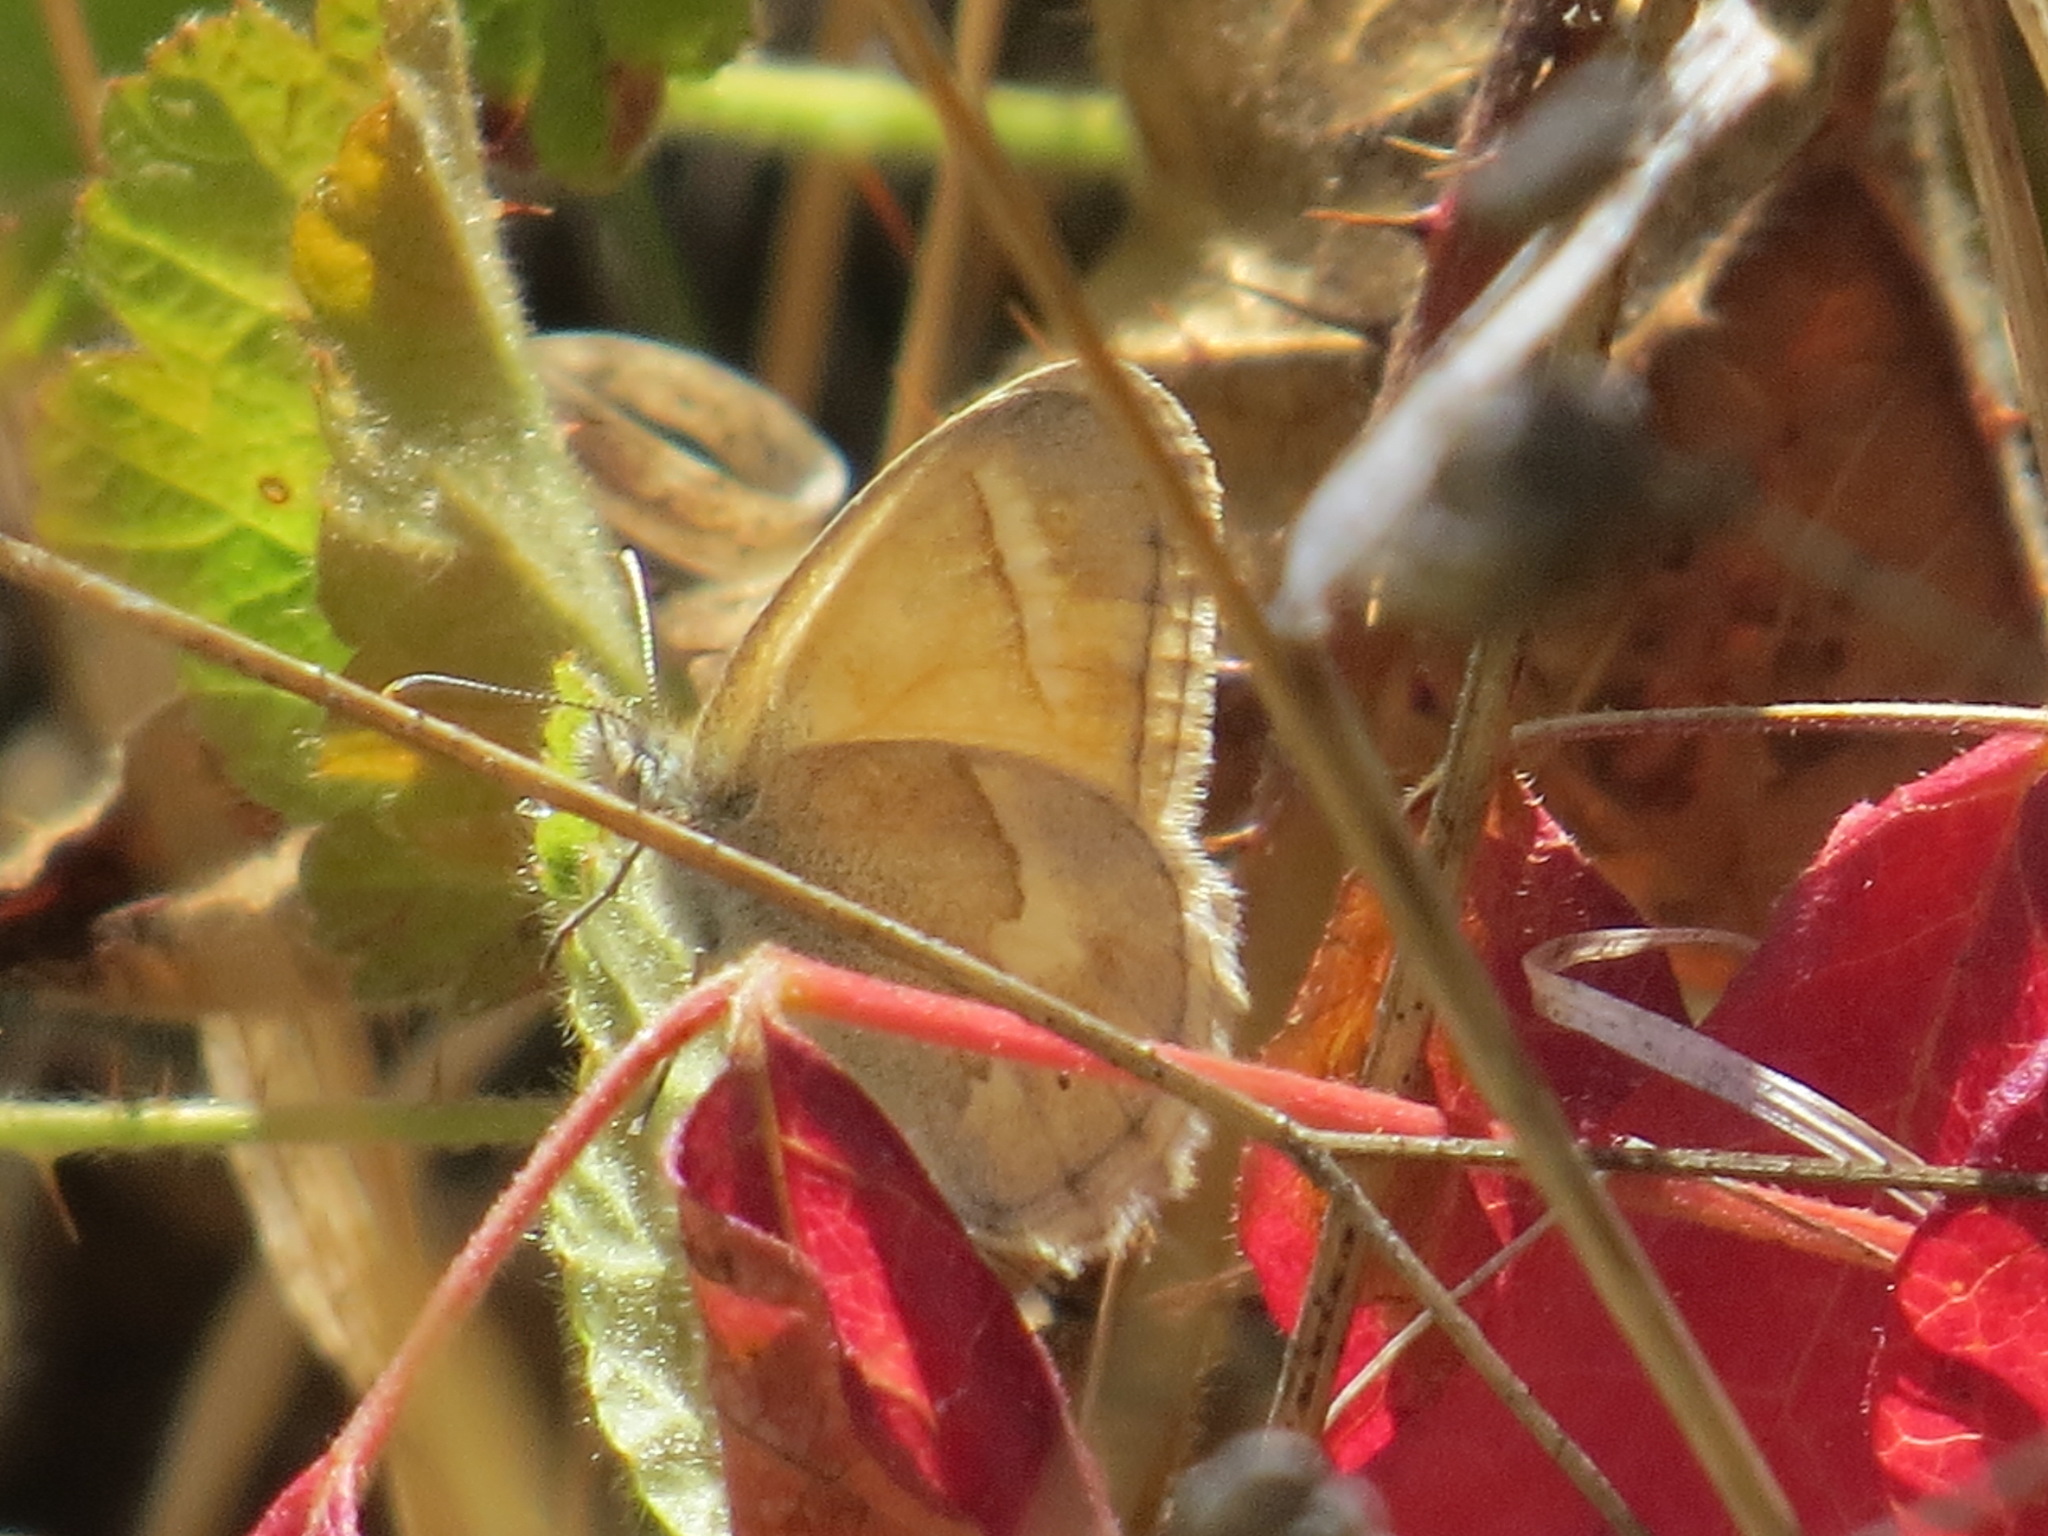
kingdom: Animalia
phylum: Arthropoda
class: Insecta
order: Lepidoptera
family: Nymphalidae
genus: Coenonympha
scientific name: Coenonympha california
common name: Common ringlet
